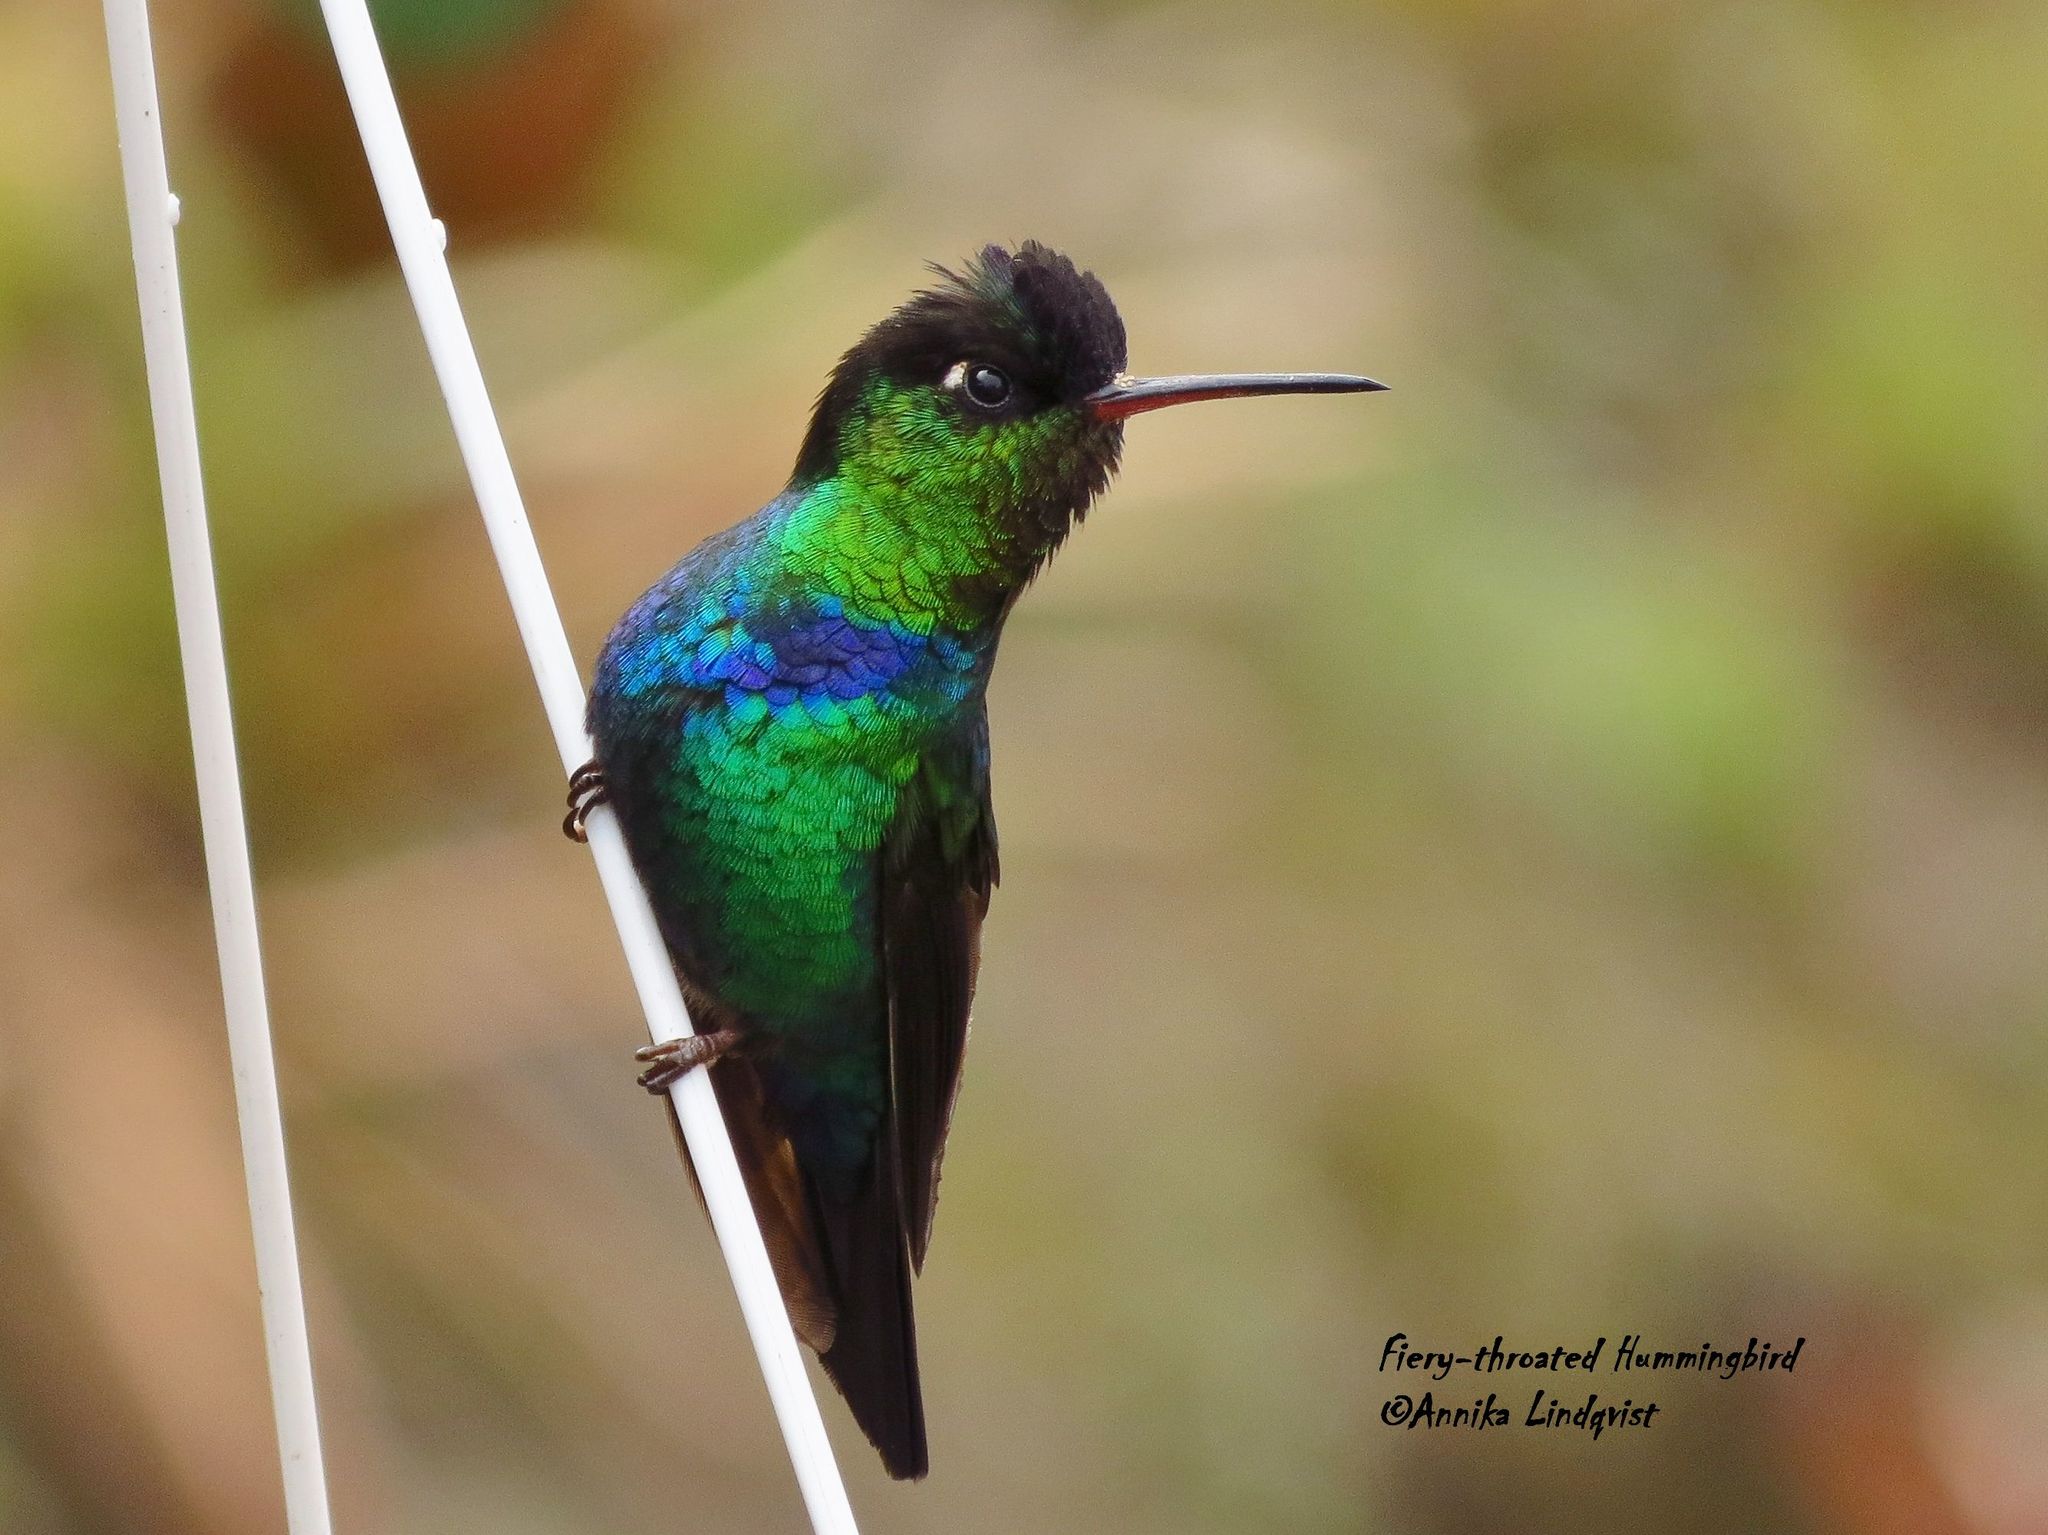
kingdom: Animalia
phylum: Chordata
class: Aves
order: Apodiformes
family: Trochilidae
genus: Panterpe
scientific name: Panterpe insignis
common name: Fiery-throated hummingbird
